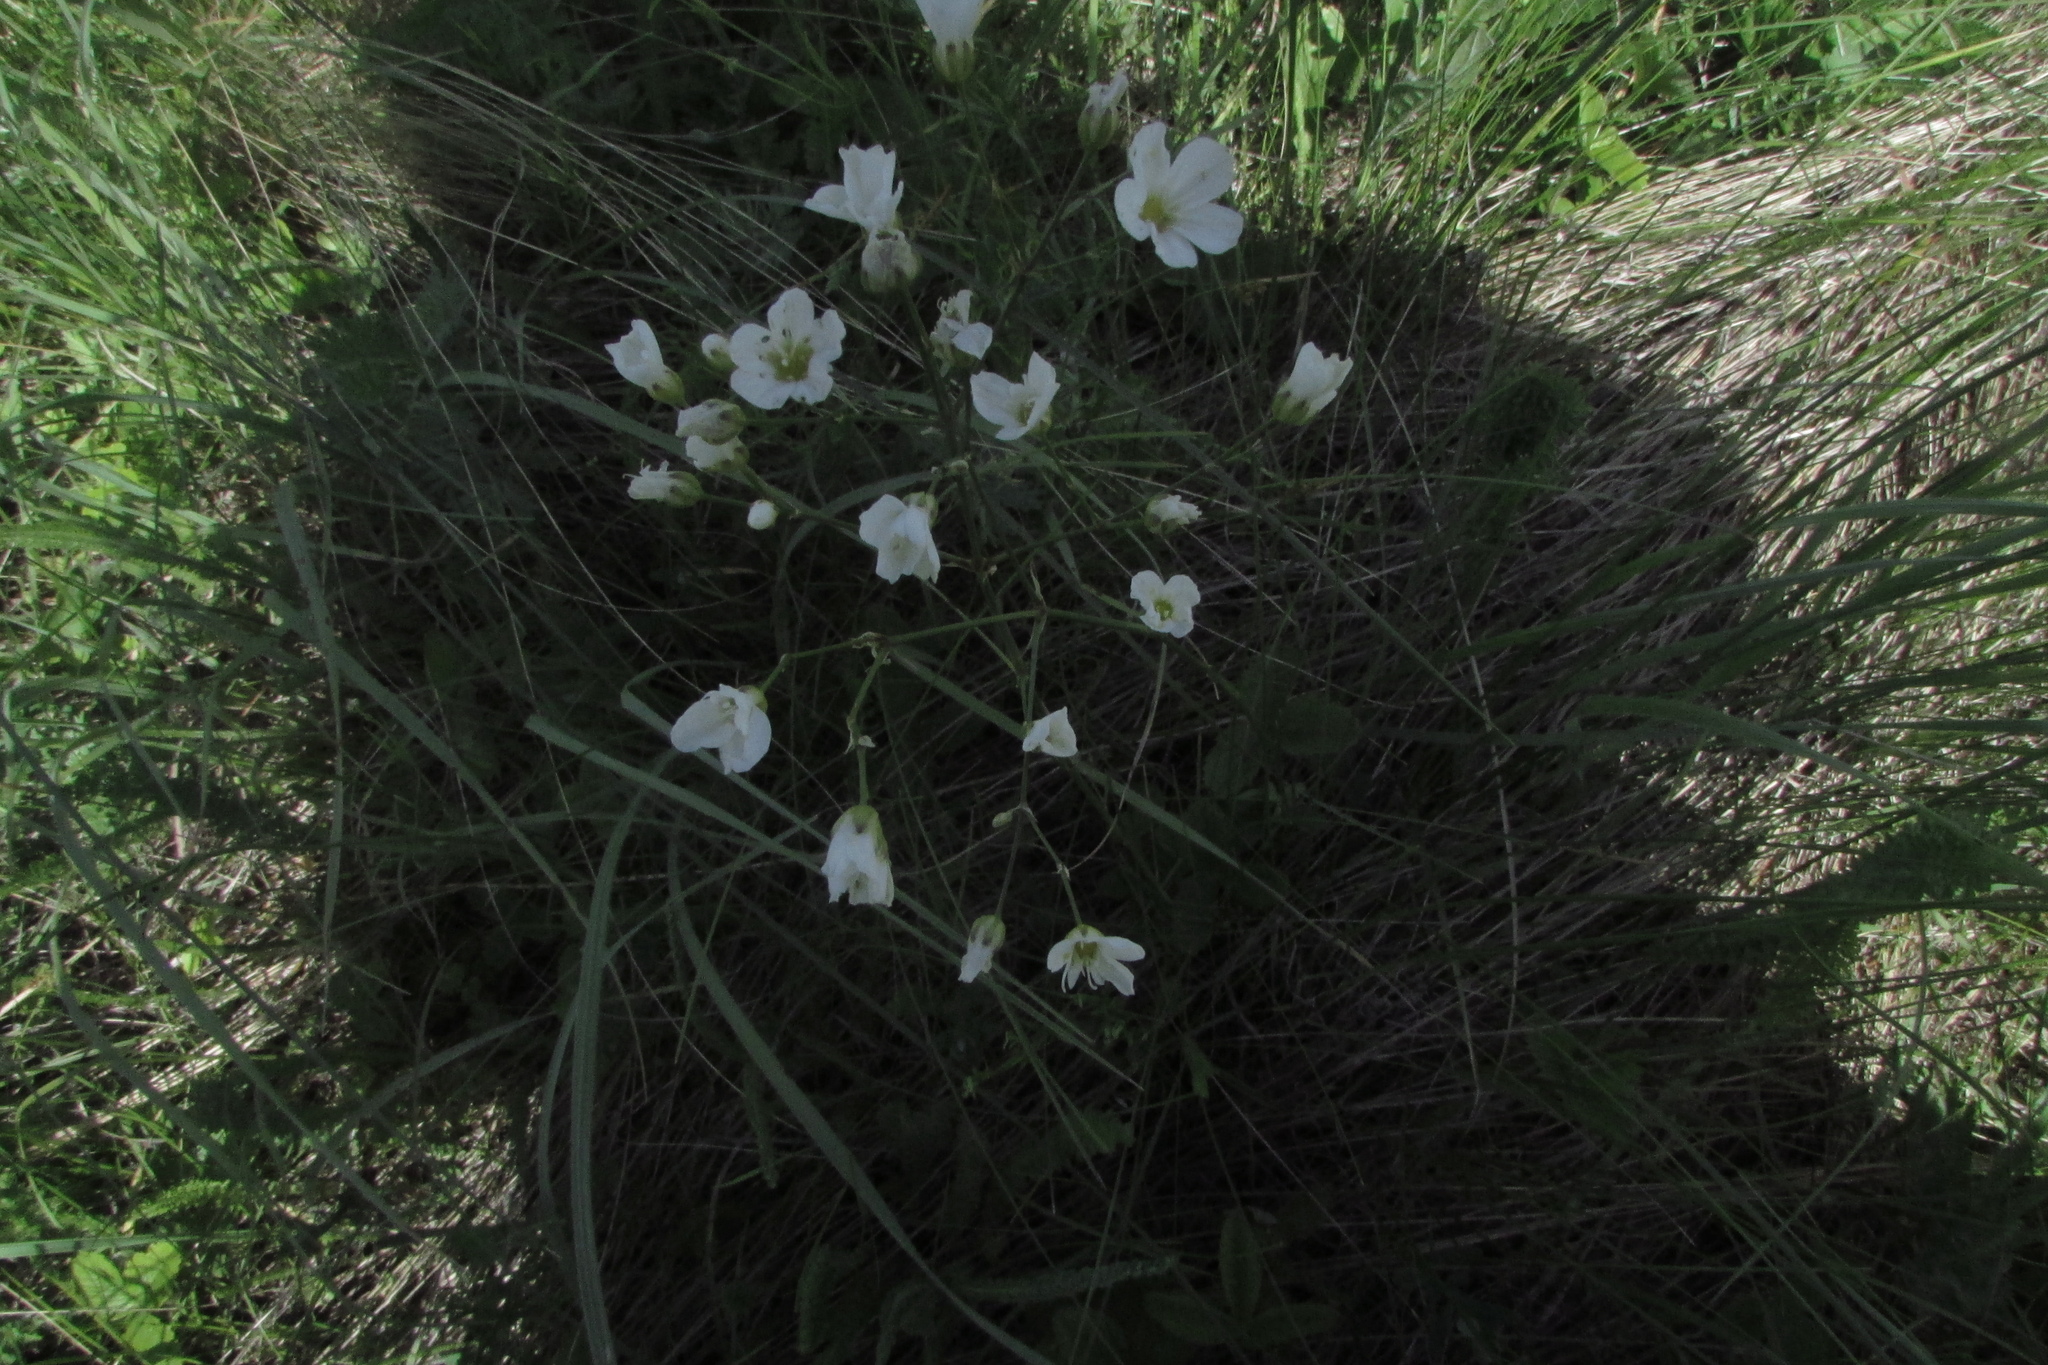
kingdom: Plantae
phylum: Tracheophyta
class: Magnoliopsida
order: Caryophyllales
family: Caryophyllaceae
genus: Eremogone
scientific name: Eremogone saxatilis
